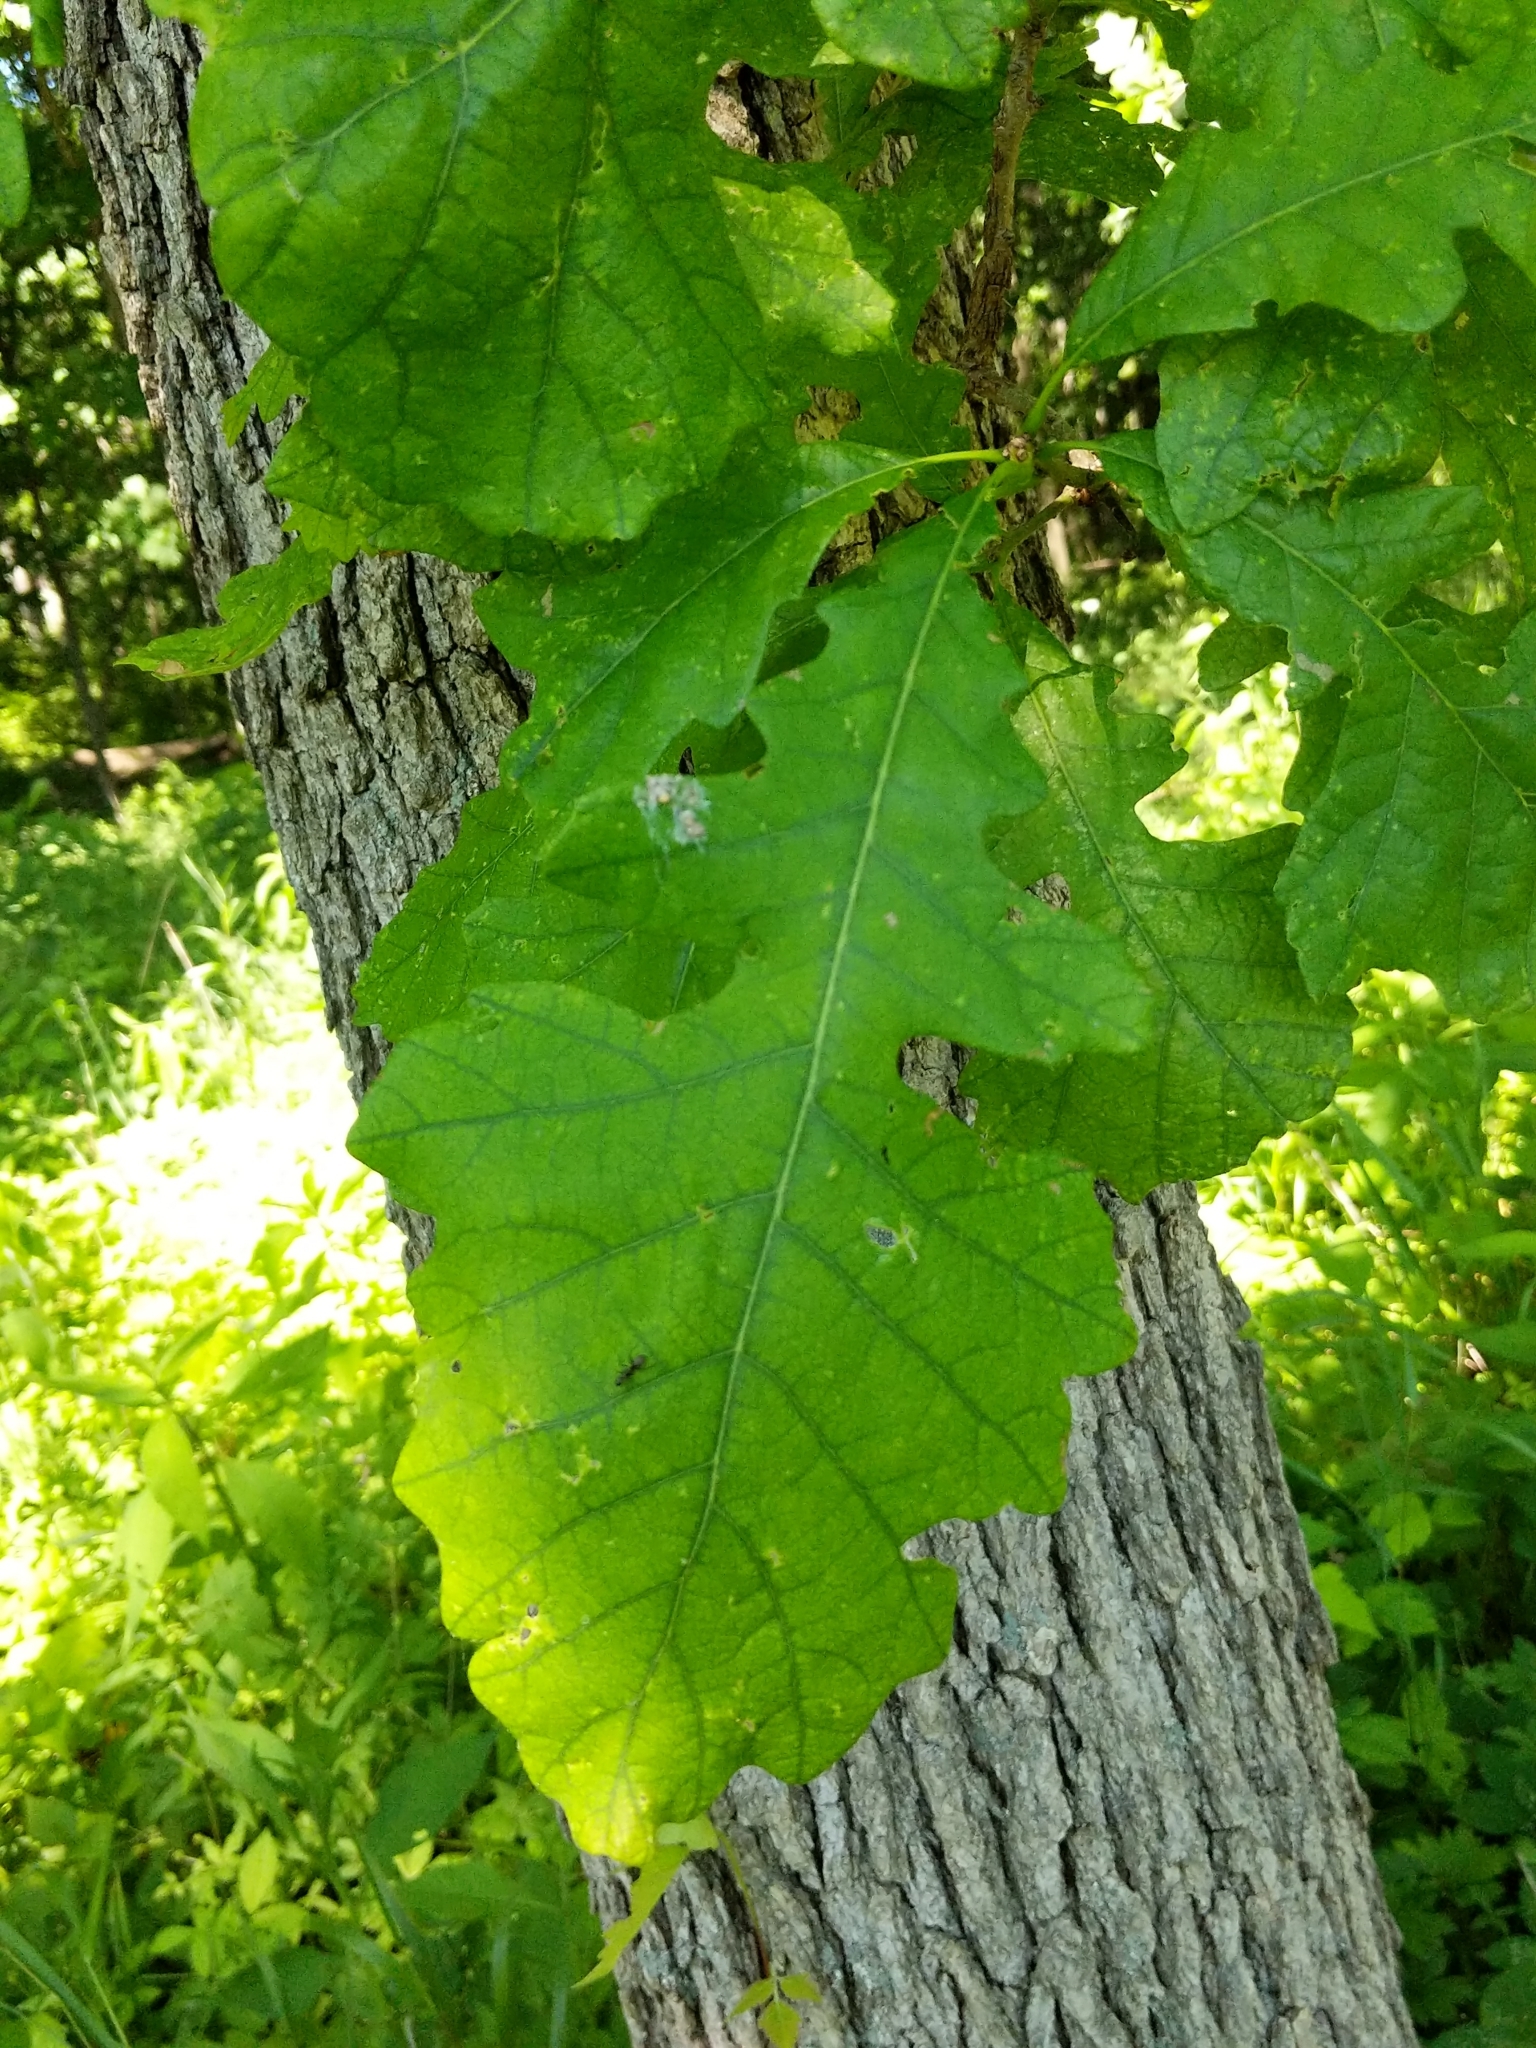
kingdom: Plantae
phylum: Tracheophyta
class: Magnoliopsida
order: Fagales
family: Fagaceae
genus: Quercus
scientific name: Quercus macrocarpa
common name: Bur oak
